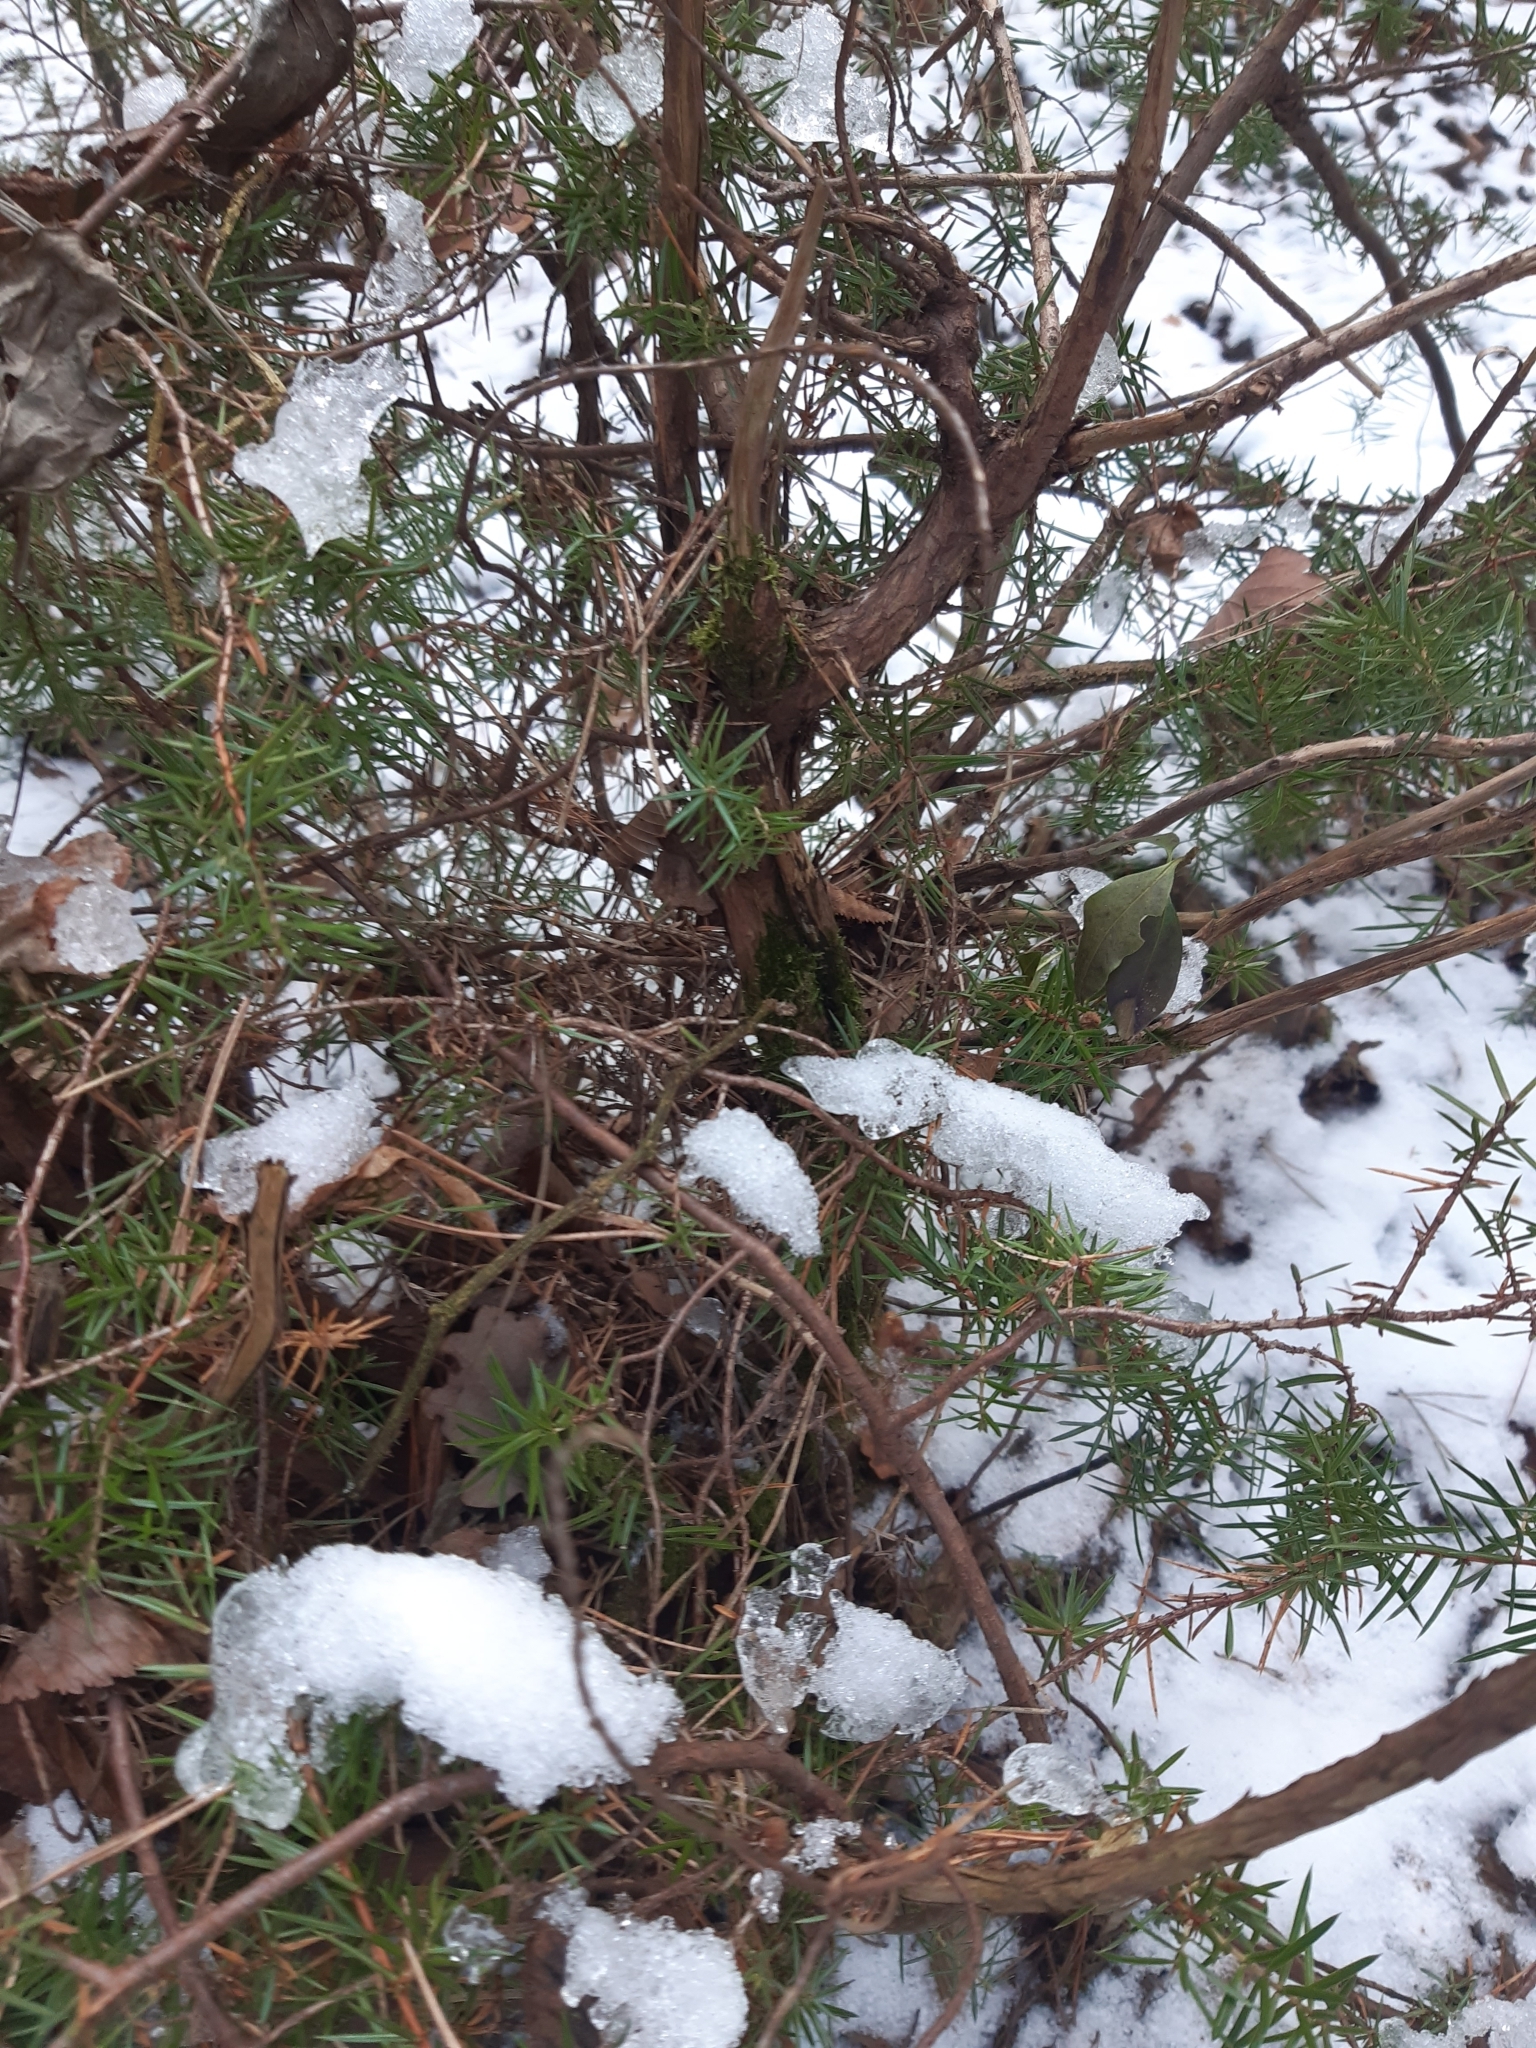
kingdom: Plantae
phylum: Tracheophyta
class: Pinopsida
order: Pinales
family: Cupressaceae
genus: Juniperus
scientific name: Juniperus communis
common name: Common juniper
